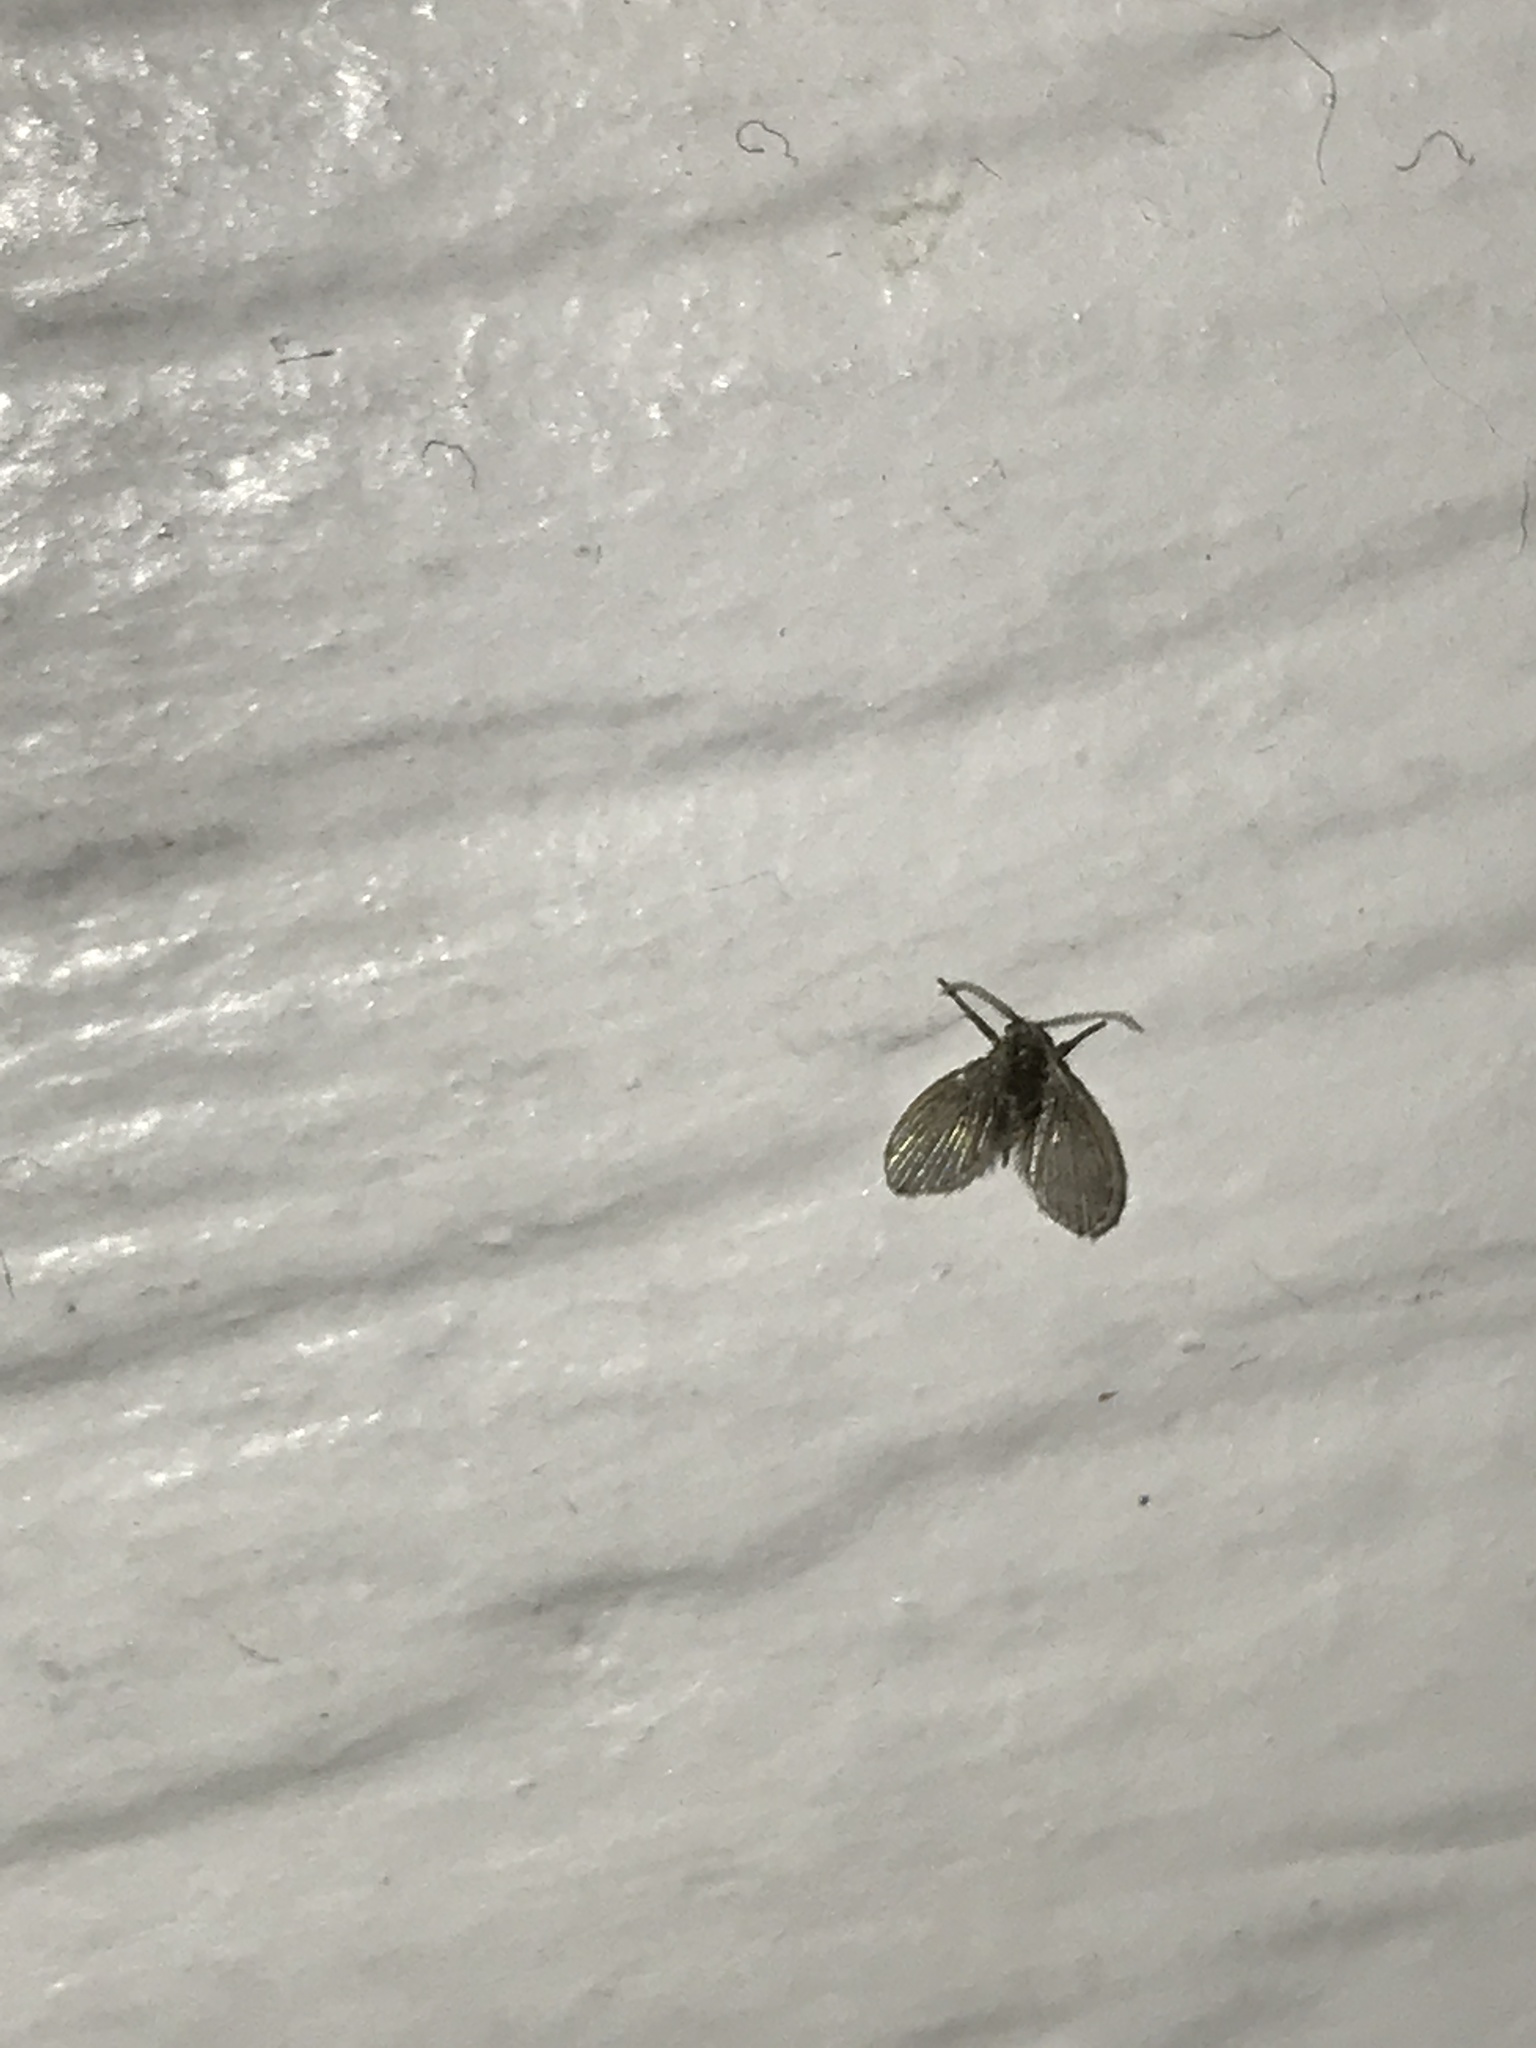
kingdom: Animalia
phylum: Arthropoda
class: Insecta
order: Diptera
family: Psychodidae
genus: Clogmia
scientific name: Clogmia albipunctatus
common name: White-spotted moth fly
